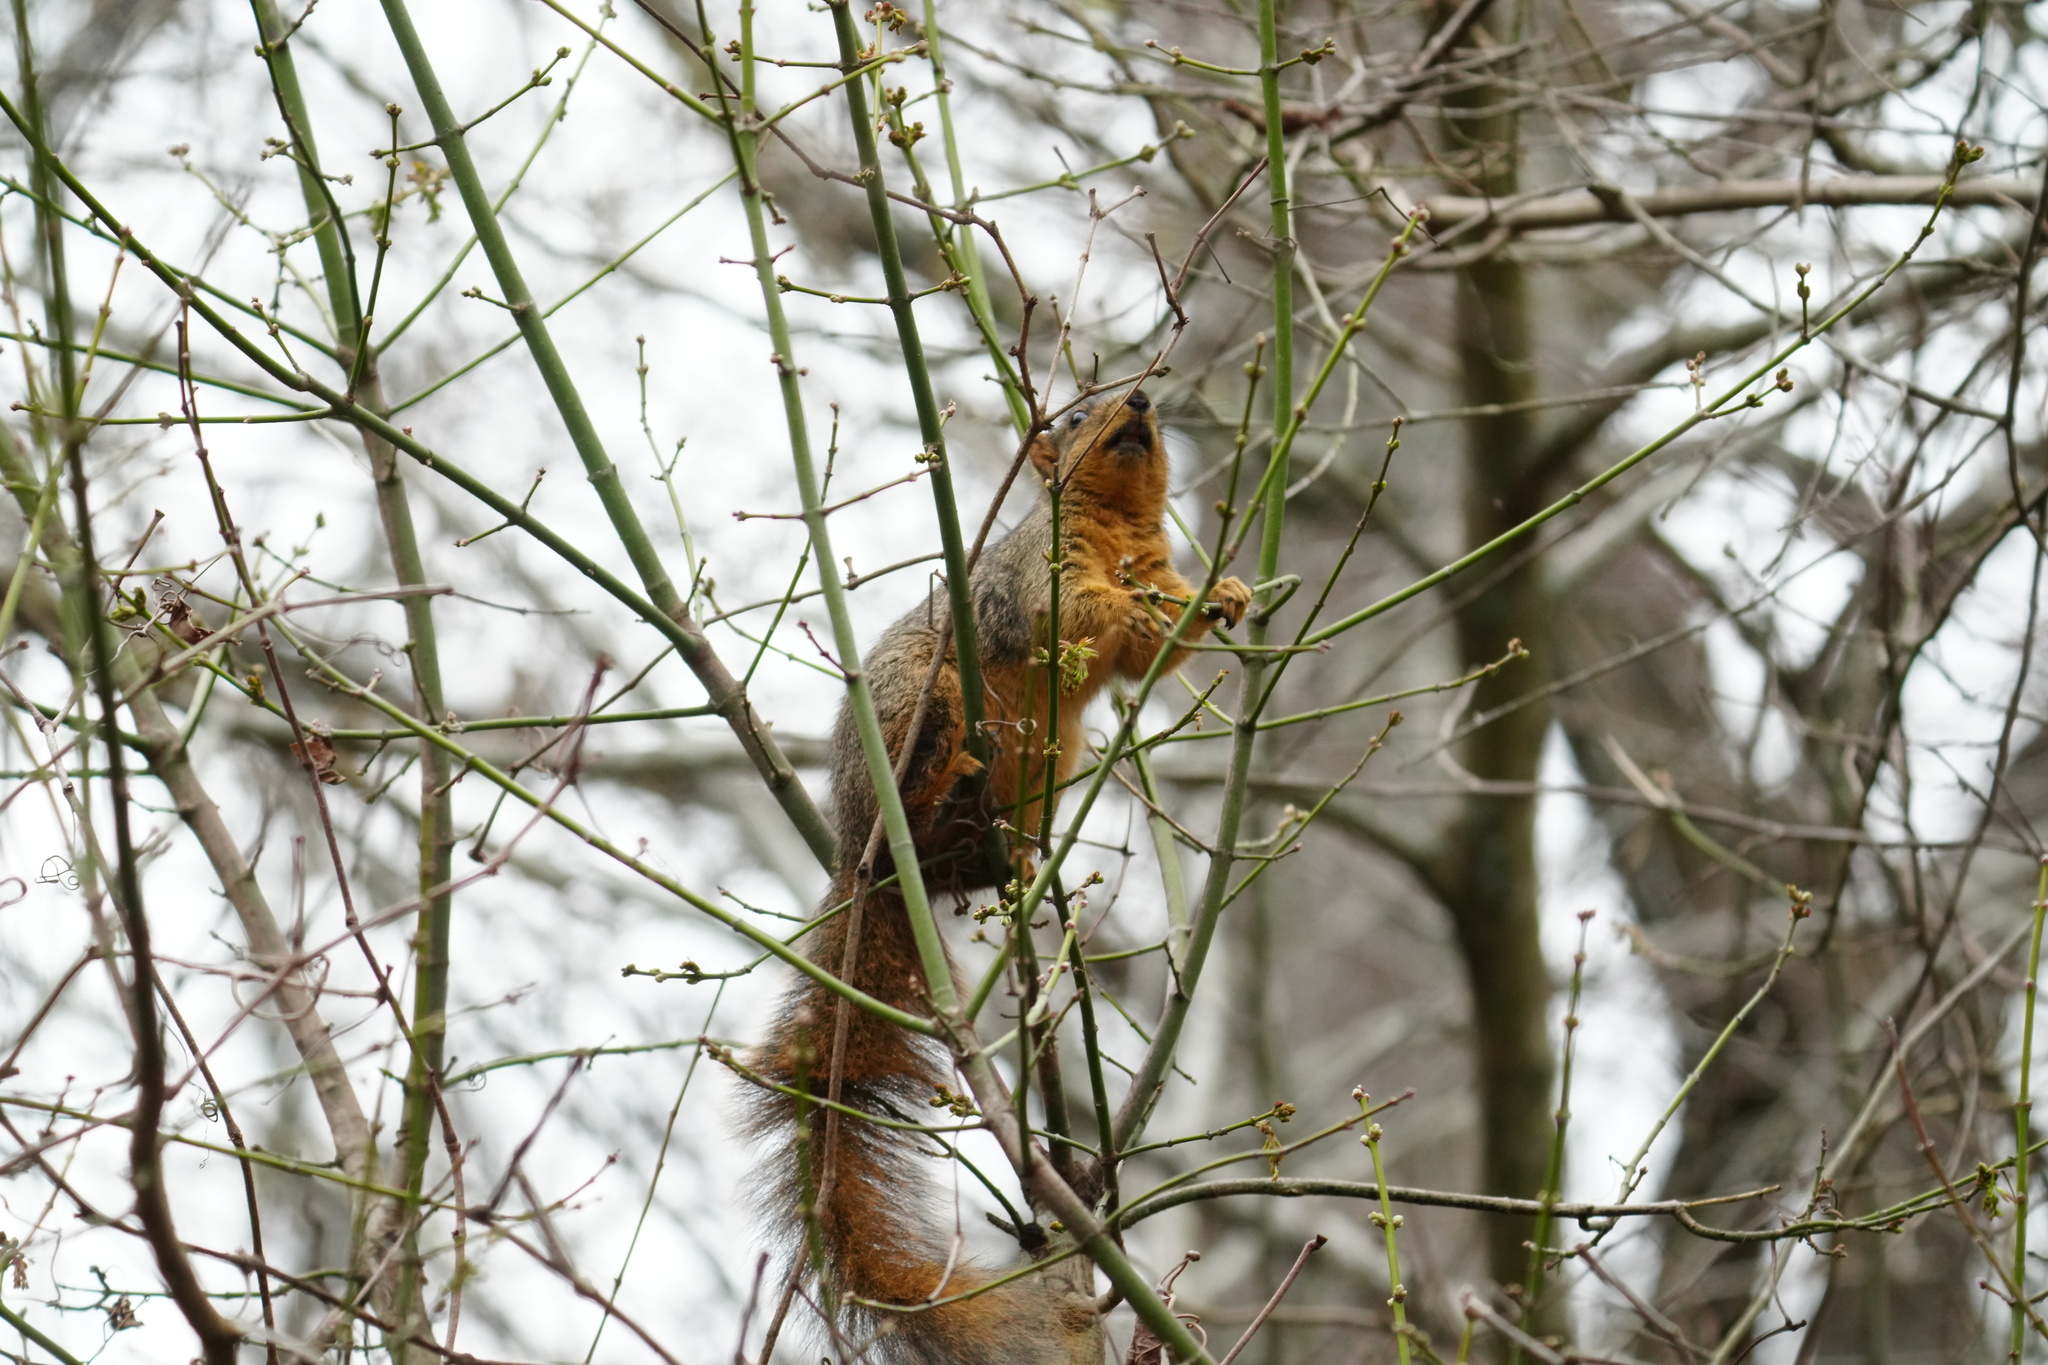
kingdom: Animalia
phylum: Chordata
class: Mammalia
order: Rodentia
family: Sciuridae
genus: Sciurus
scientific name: Sciurus niger
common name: Fox squirrel
